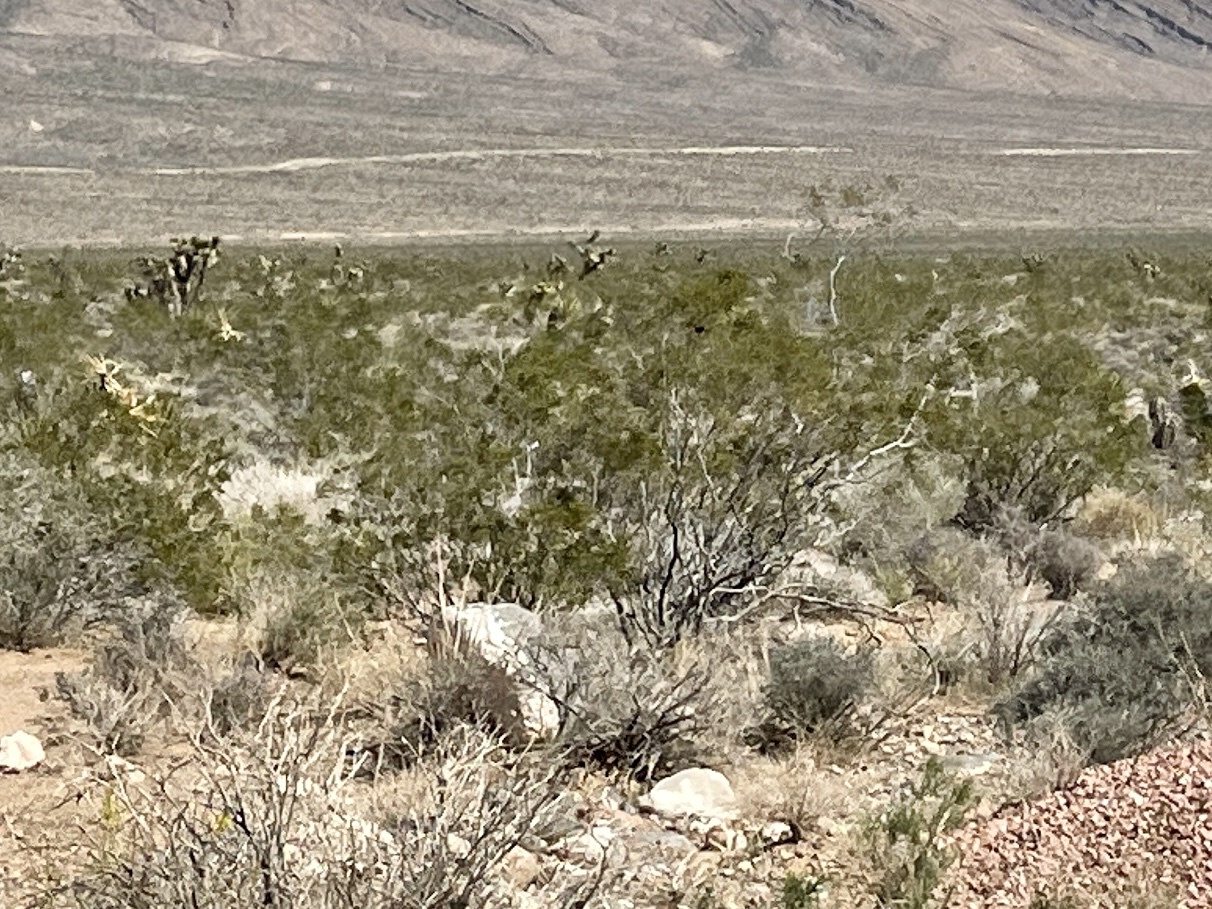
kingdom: Plantae
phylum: Tracheophyta
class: Magnoliopsida
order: Zygophyllales
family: Zygophyllaceae
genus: Larrea
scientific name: Larrea tridentata
